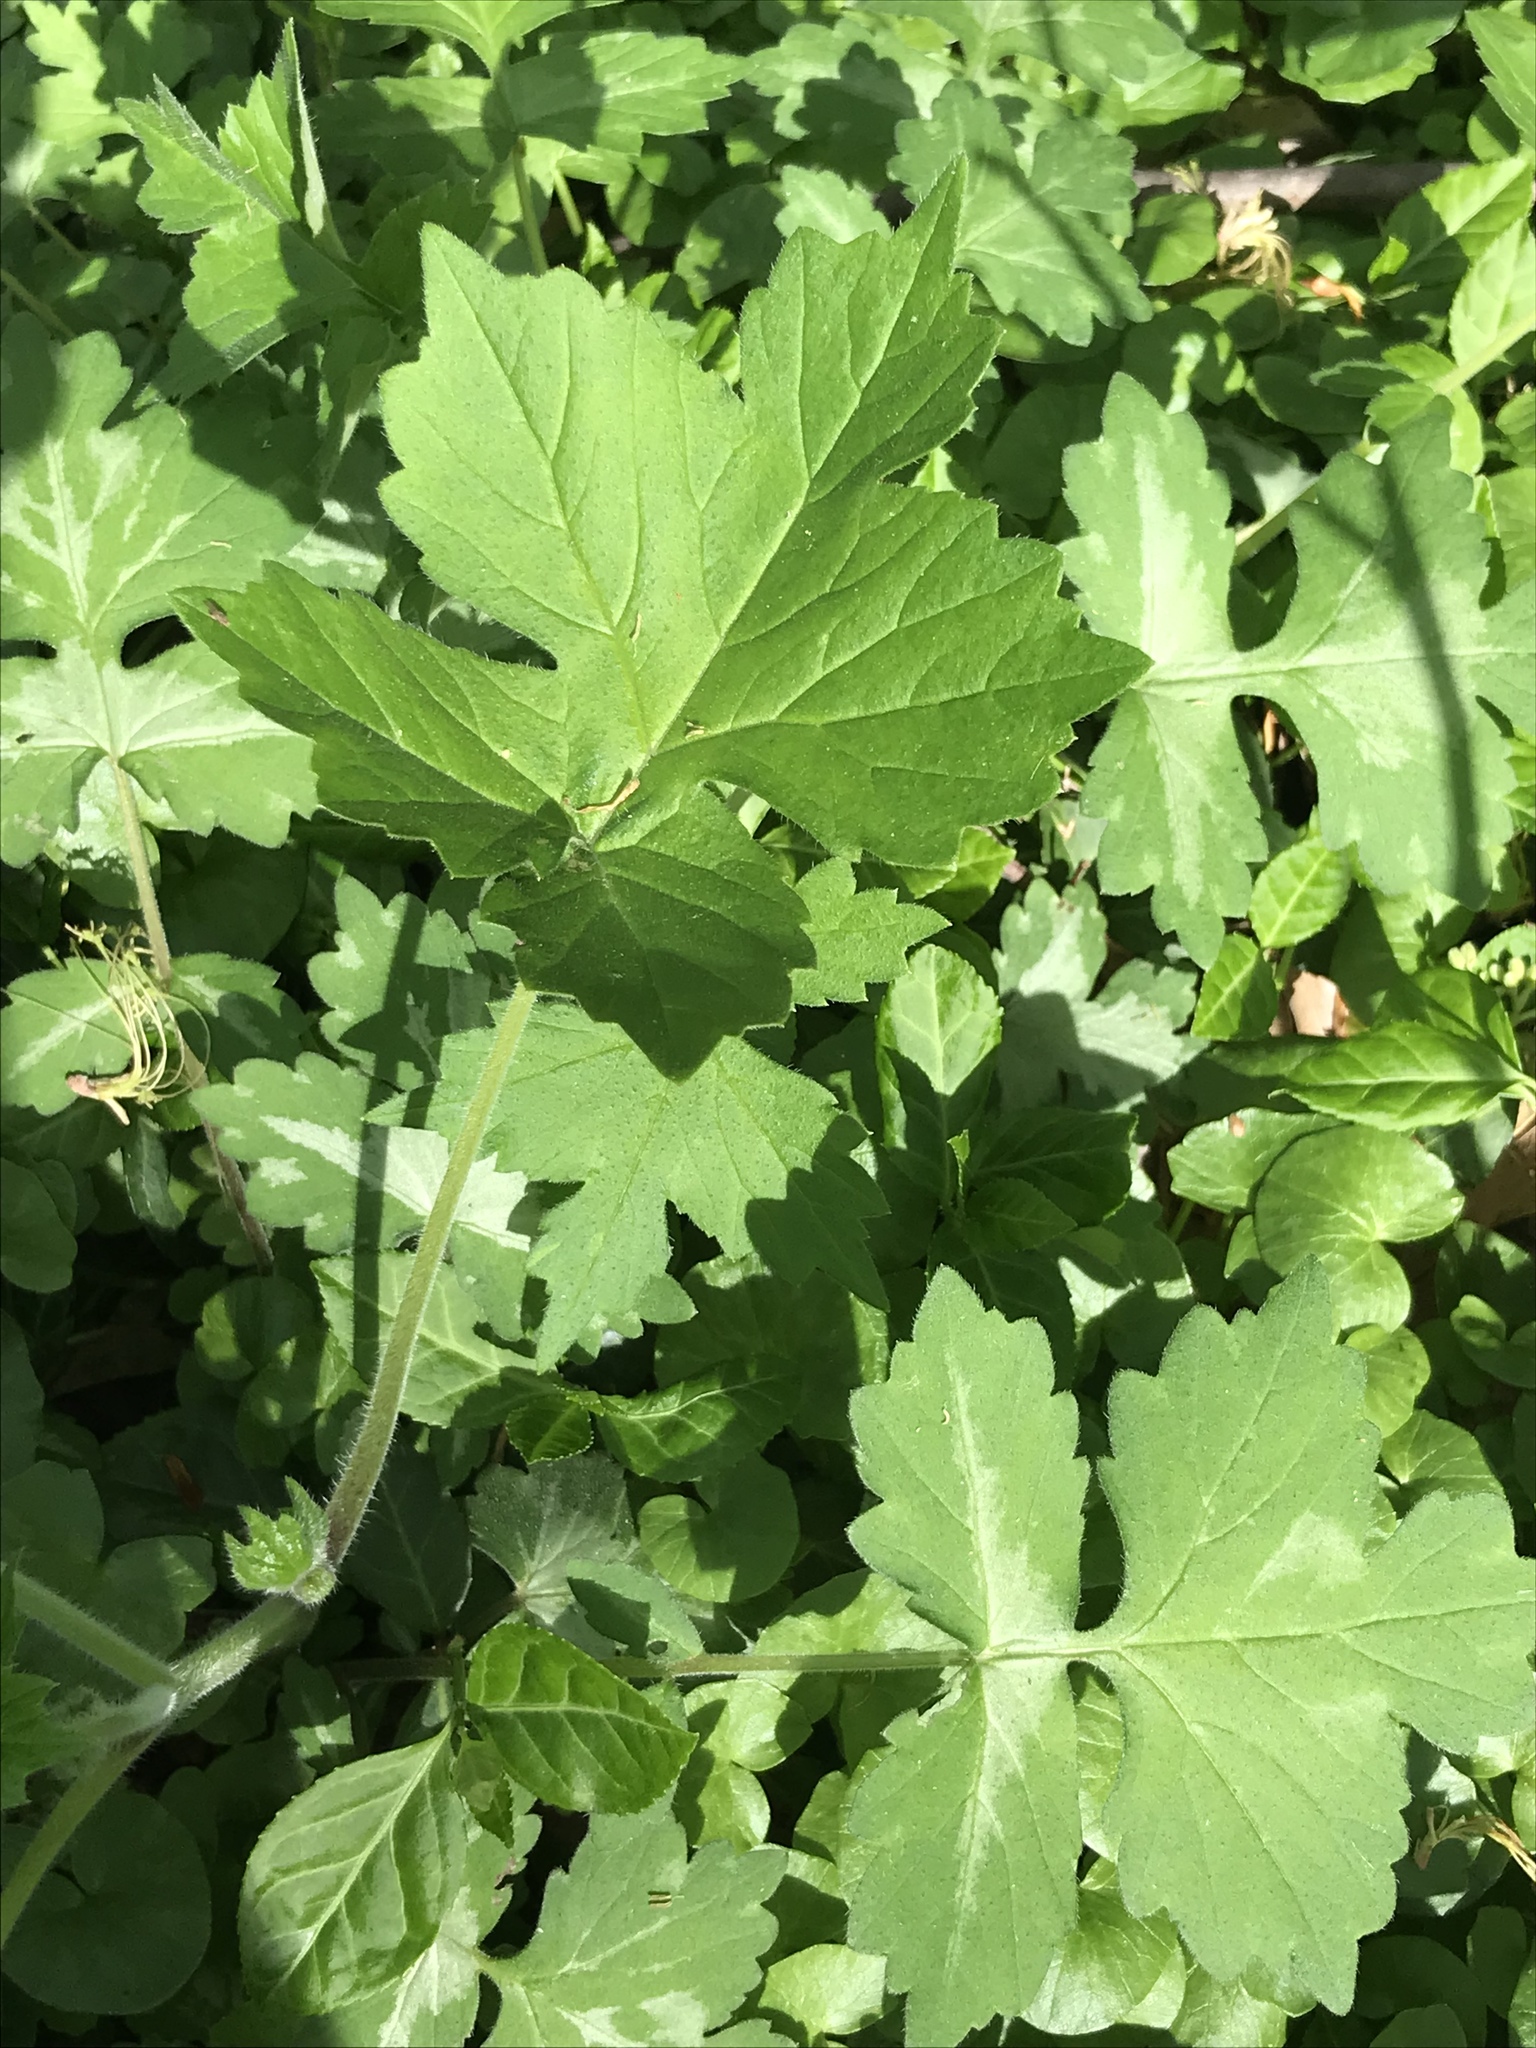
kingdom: Plantae
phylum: Tracheophyta
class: Magnoliopsida
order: Boraginales
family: Hydrophyllaceae
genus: Hydrophyllum
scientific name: Hydrophyllum appendiculatum
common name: Appendaged waterleaf
